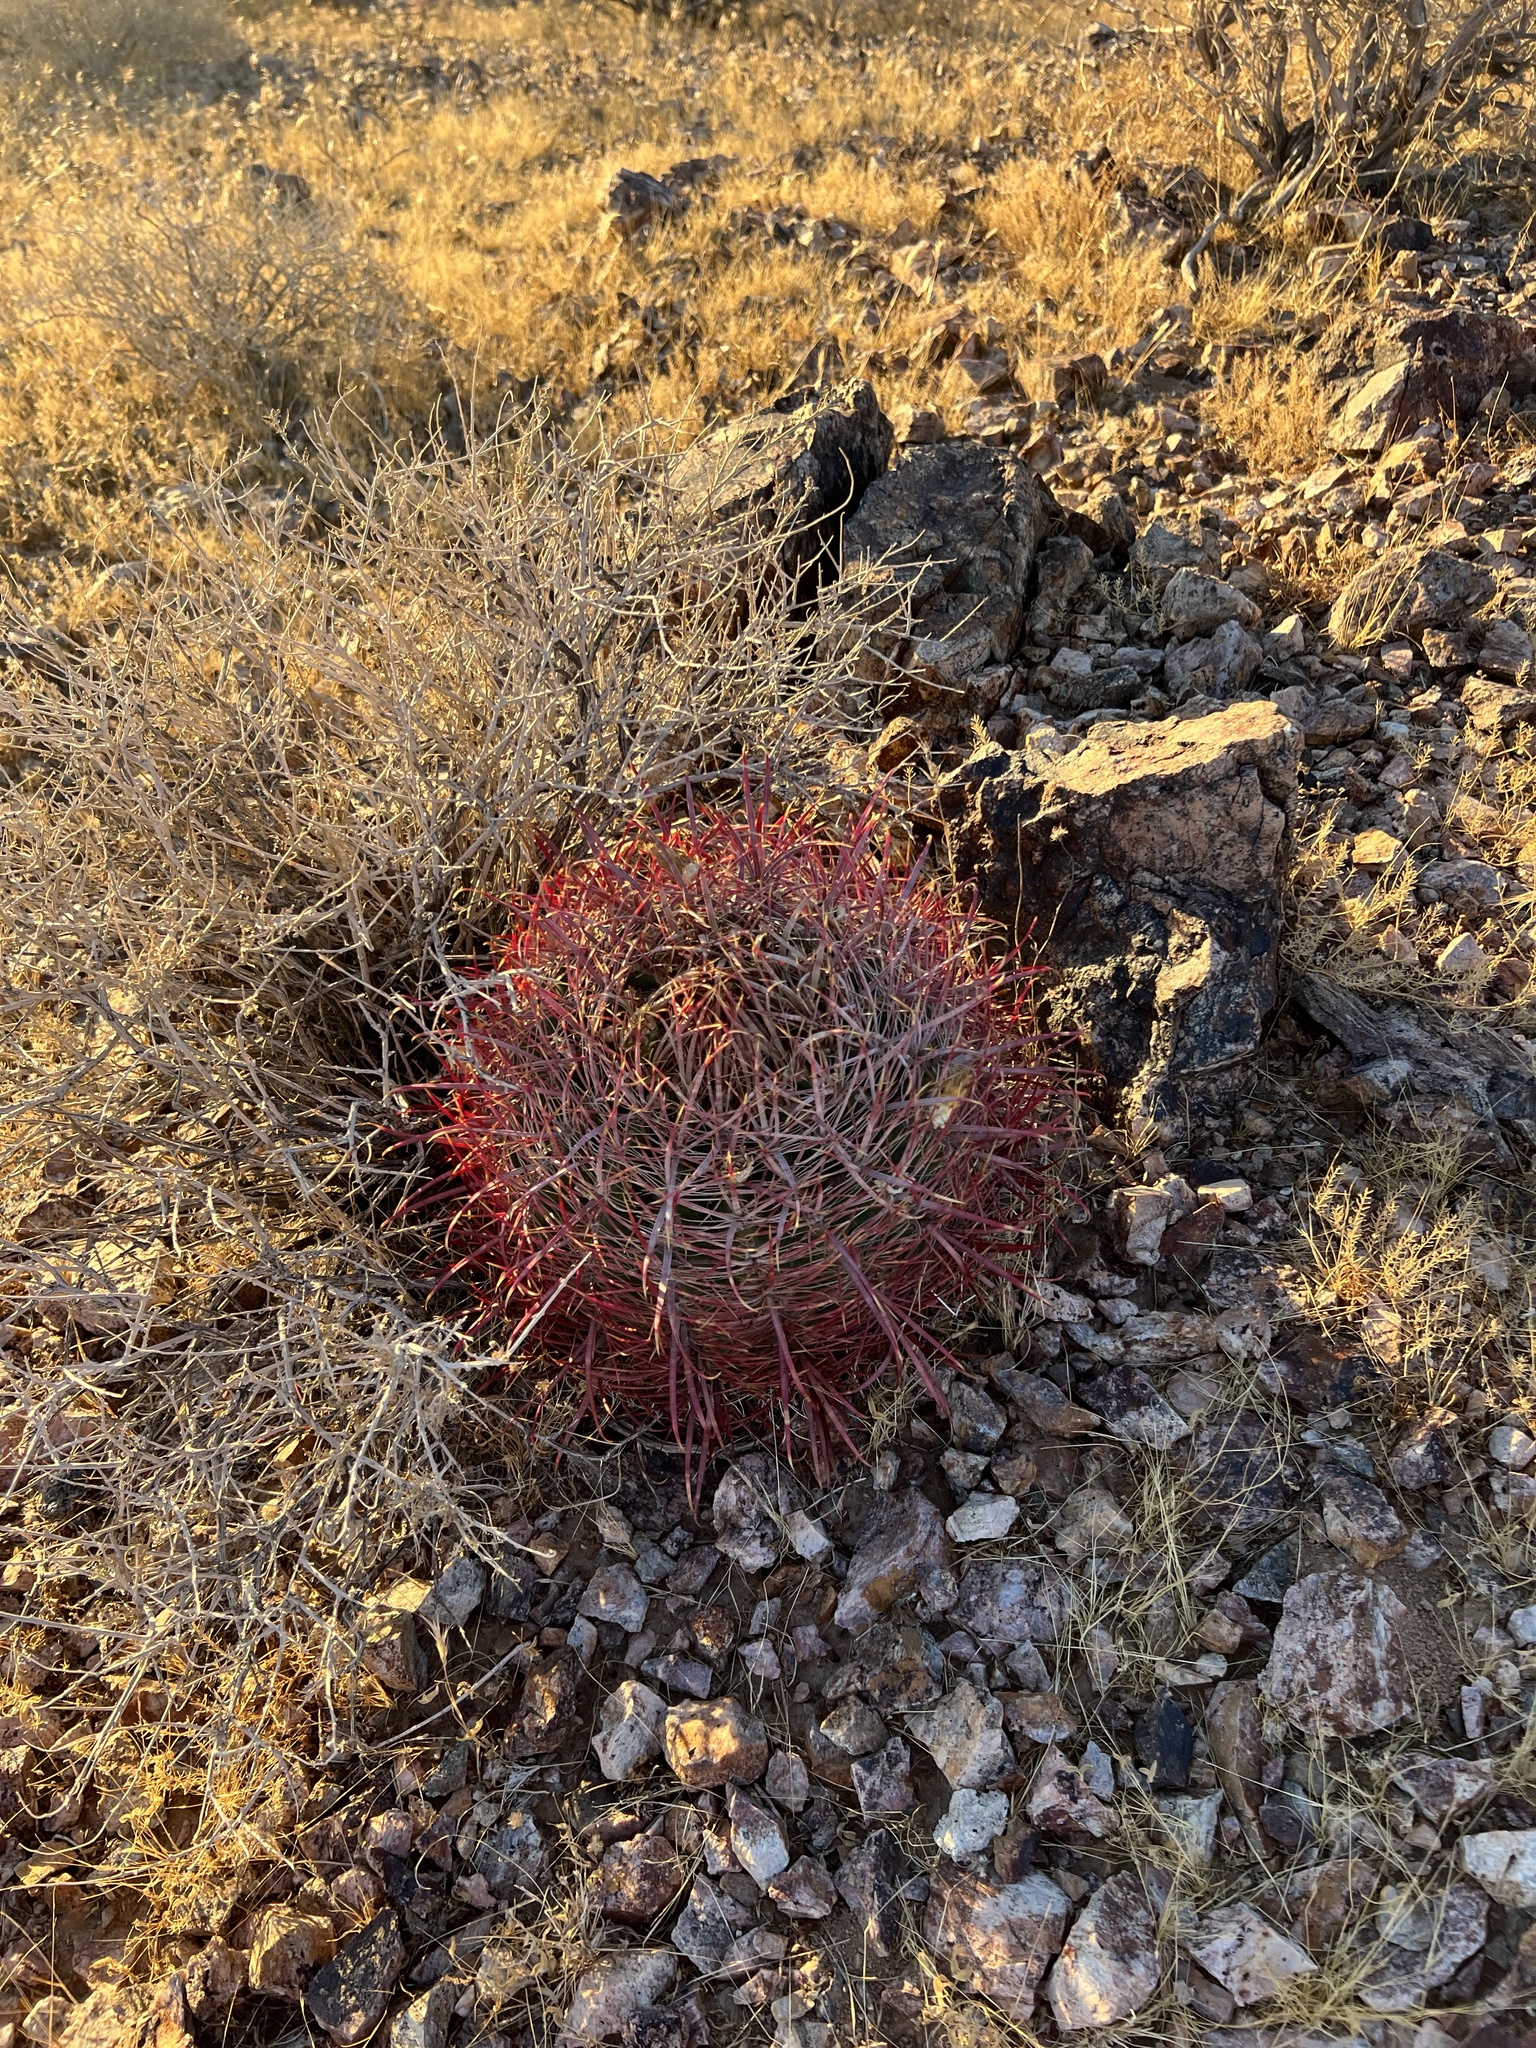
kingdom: Plantae
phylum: Tracheophyta
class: Magnoliopsida
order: Caryophyllales
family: Cactaceae
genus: Ferocactus
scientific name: Ferocactus cylindraceus
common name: California barrel cactus
